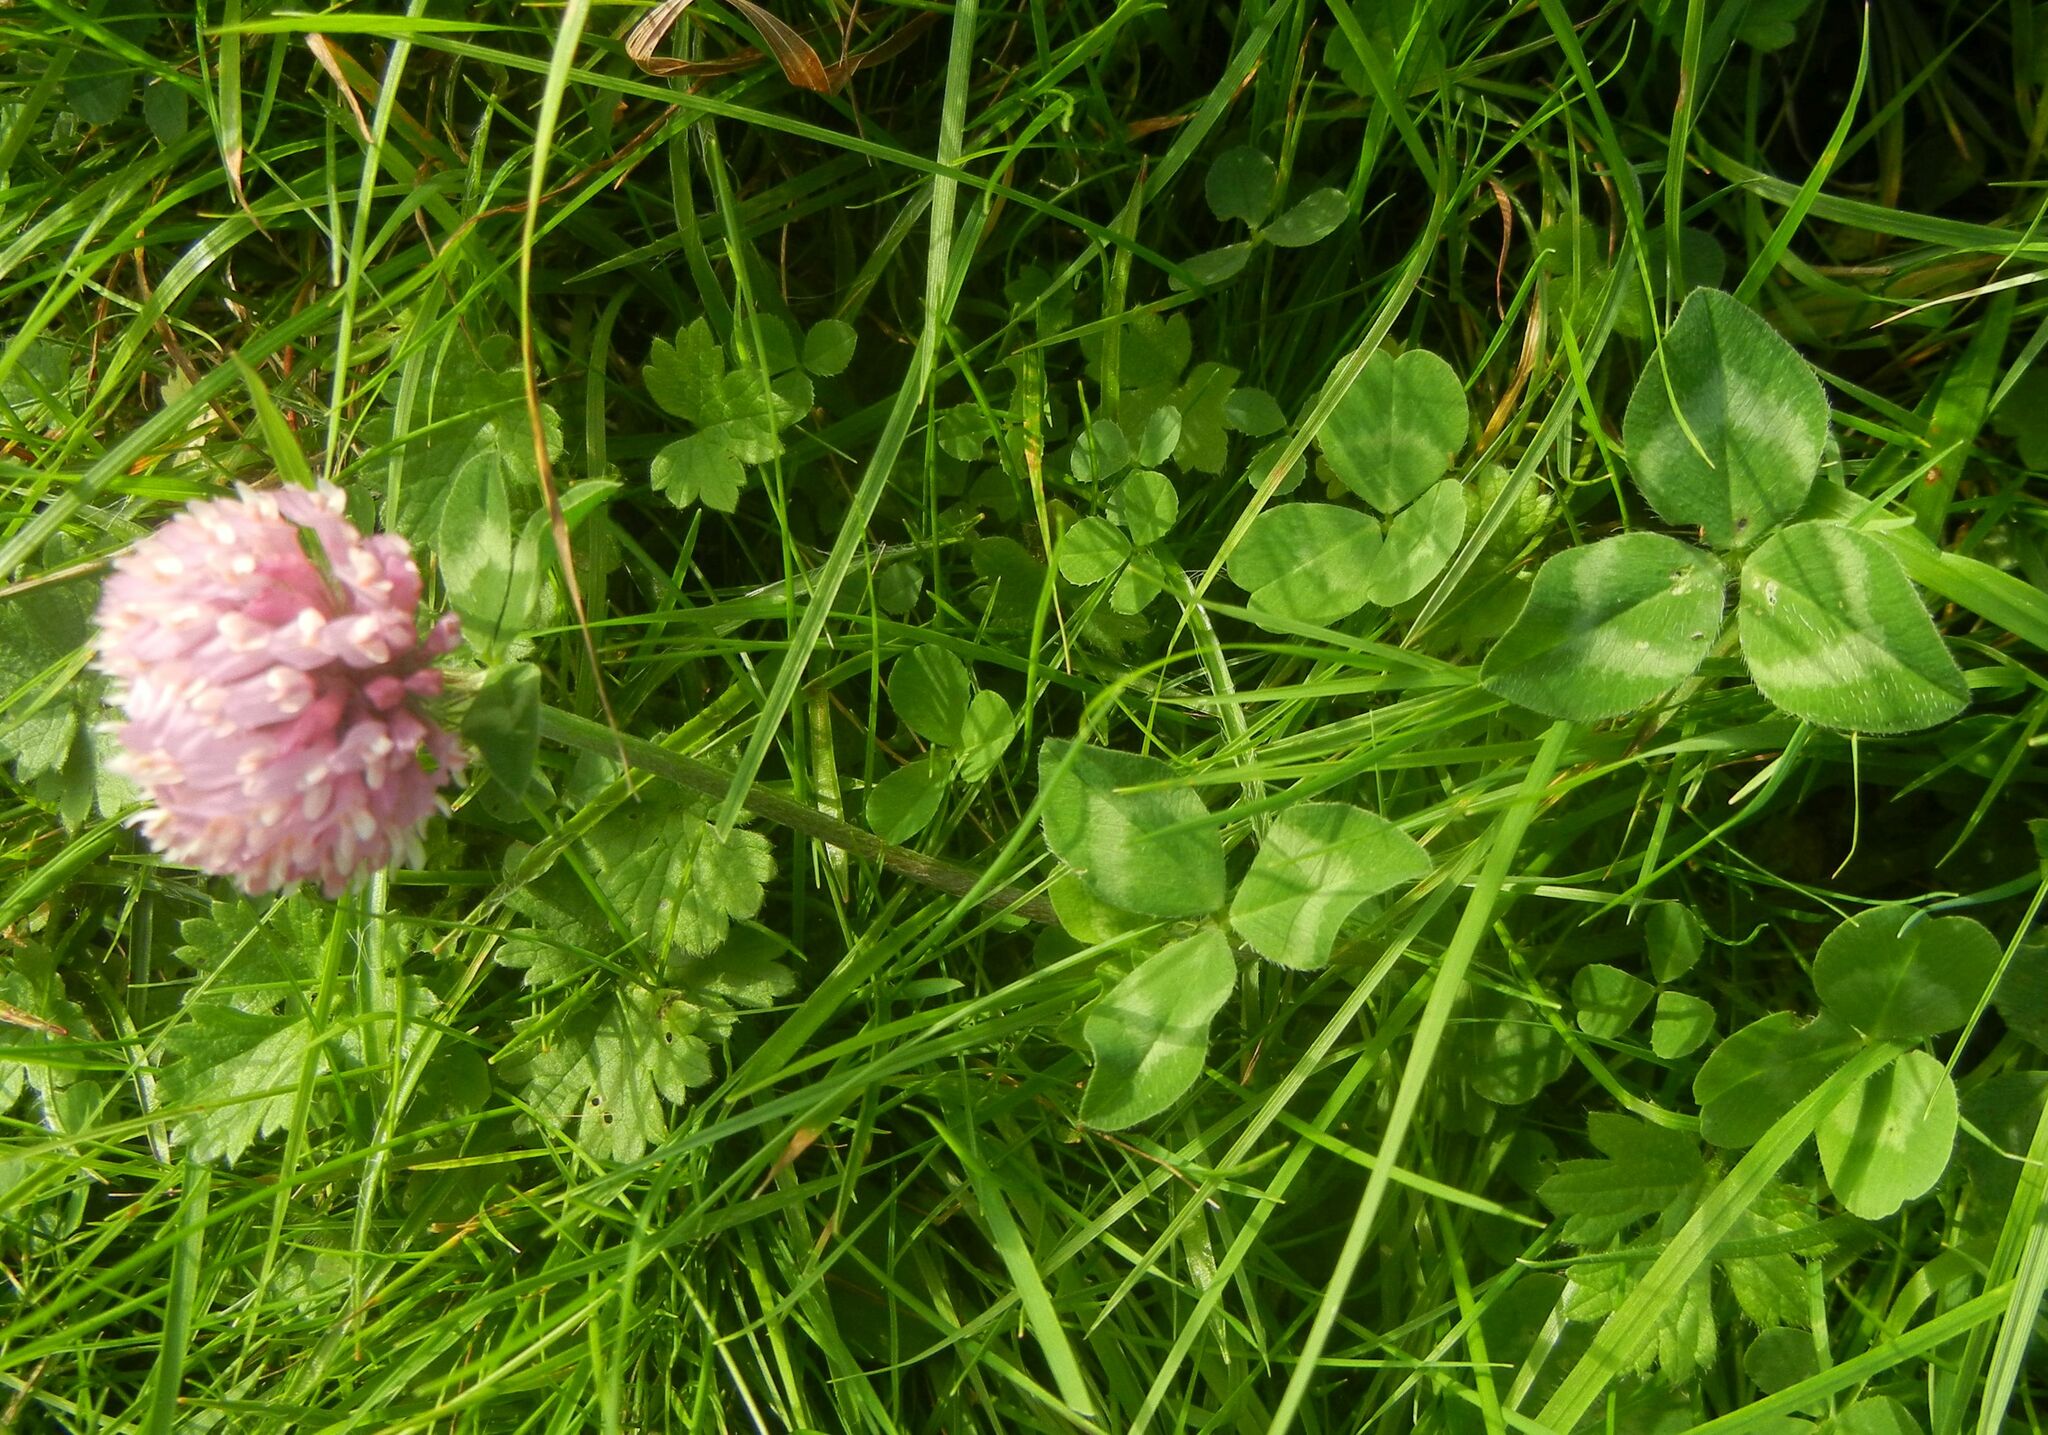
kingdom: Plantae
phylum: Tracheophyta
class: Magnoliopsida
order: Fabales
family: Fabaceae
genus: Trifolium
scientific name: Trifolium pratense
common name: Red clover
